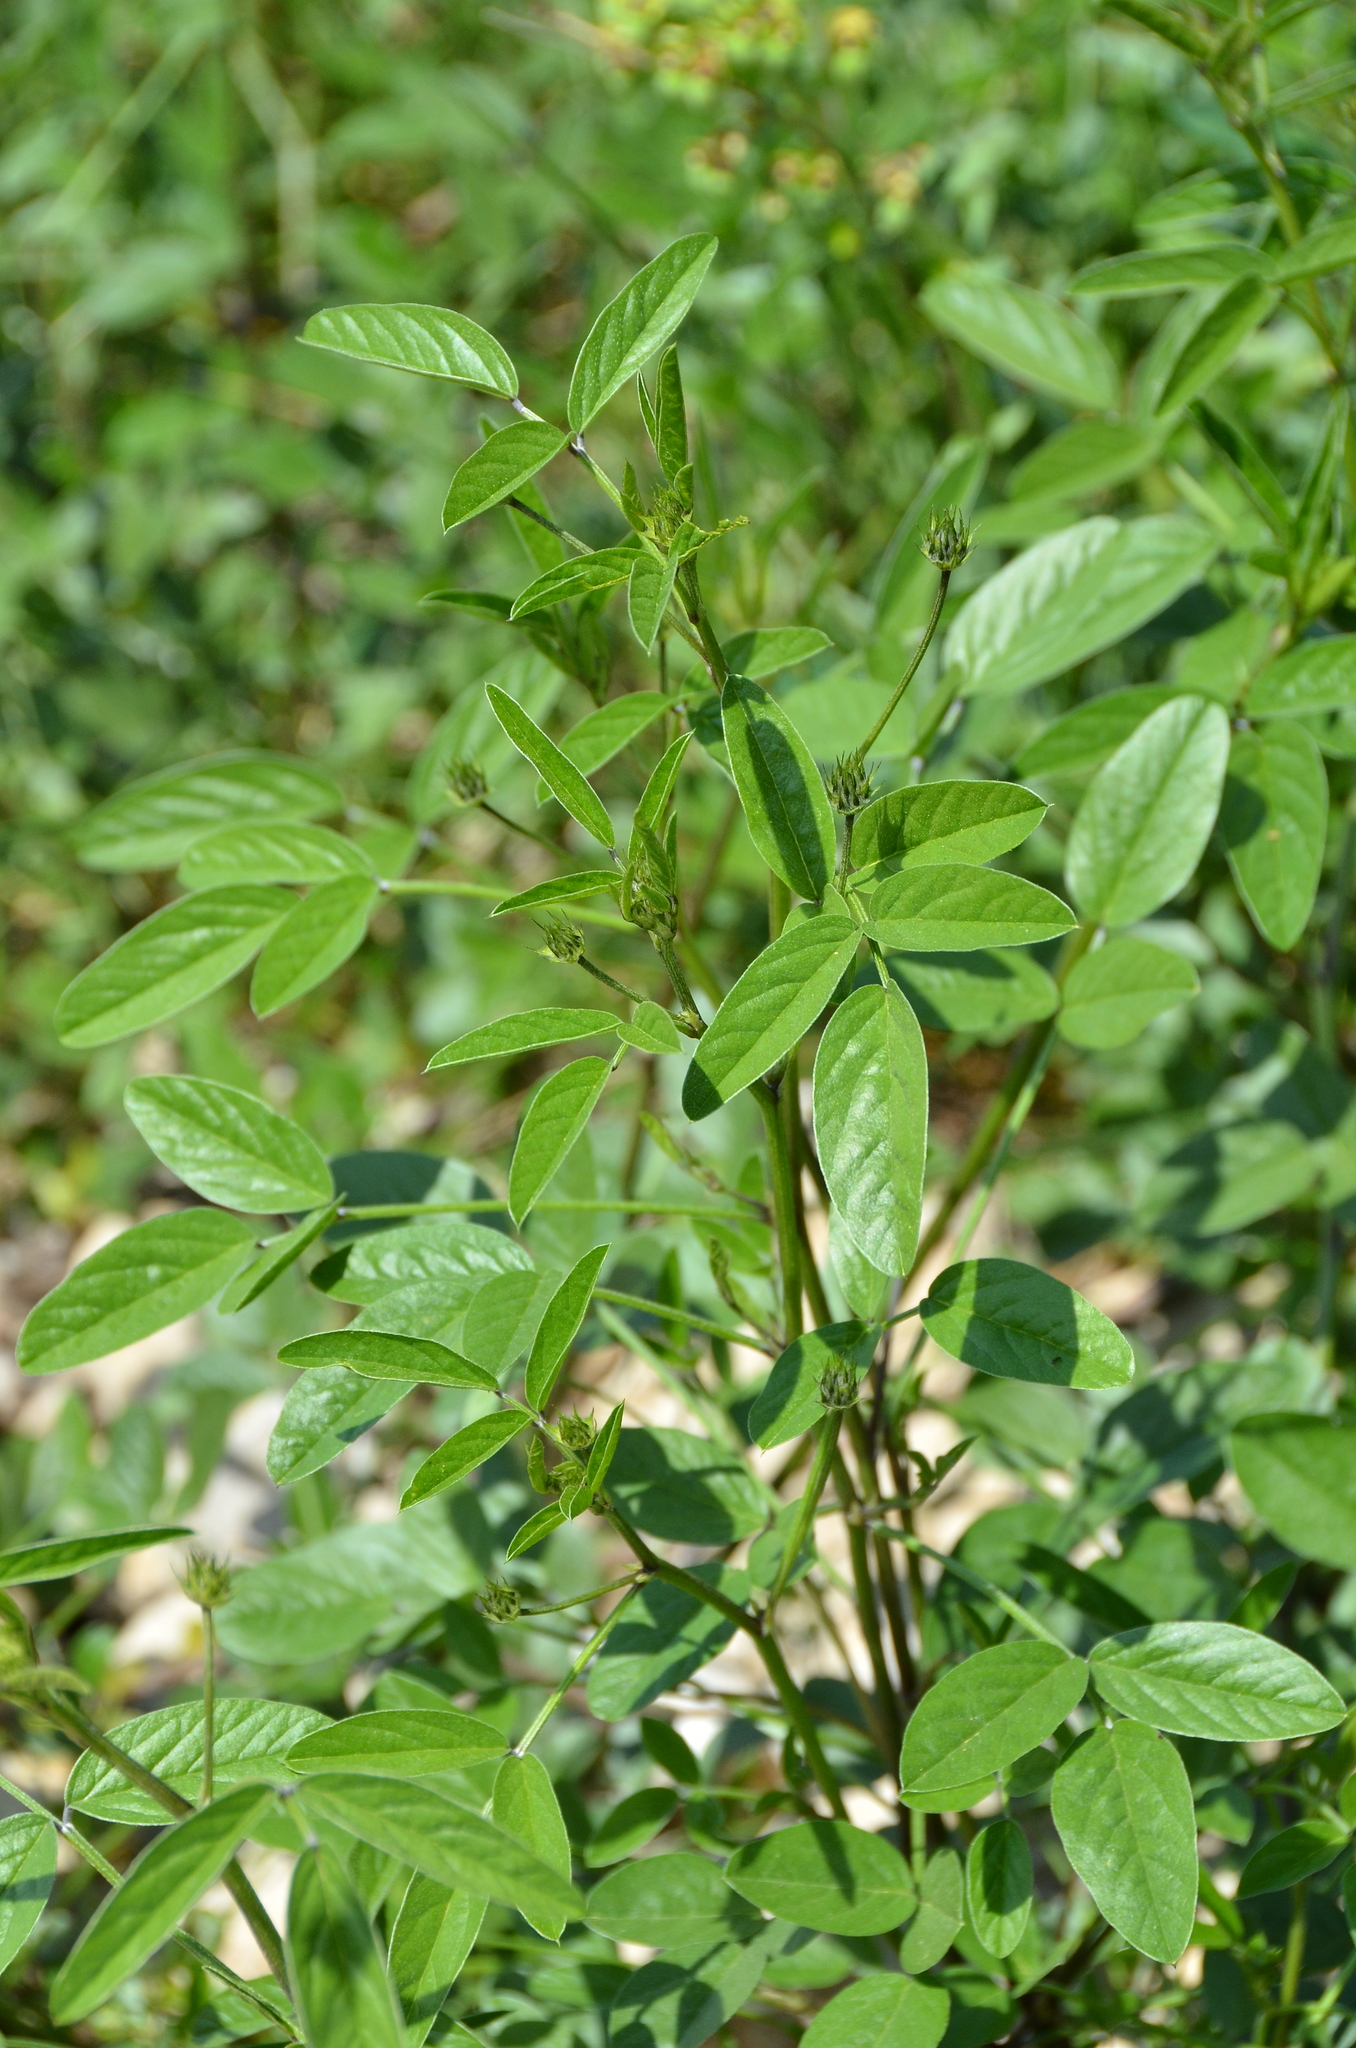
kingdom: Plantae
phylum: Tracheophyta
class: Magnoliopsida
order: Fabales
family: Fabaceae
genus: Bituminaria
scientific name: Bituminaria bituminosa
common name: Arabian pea
